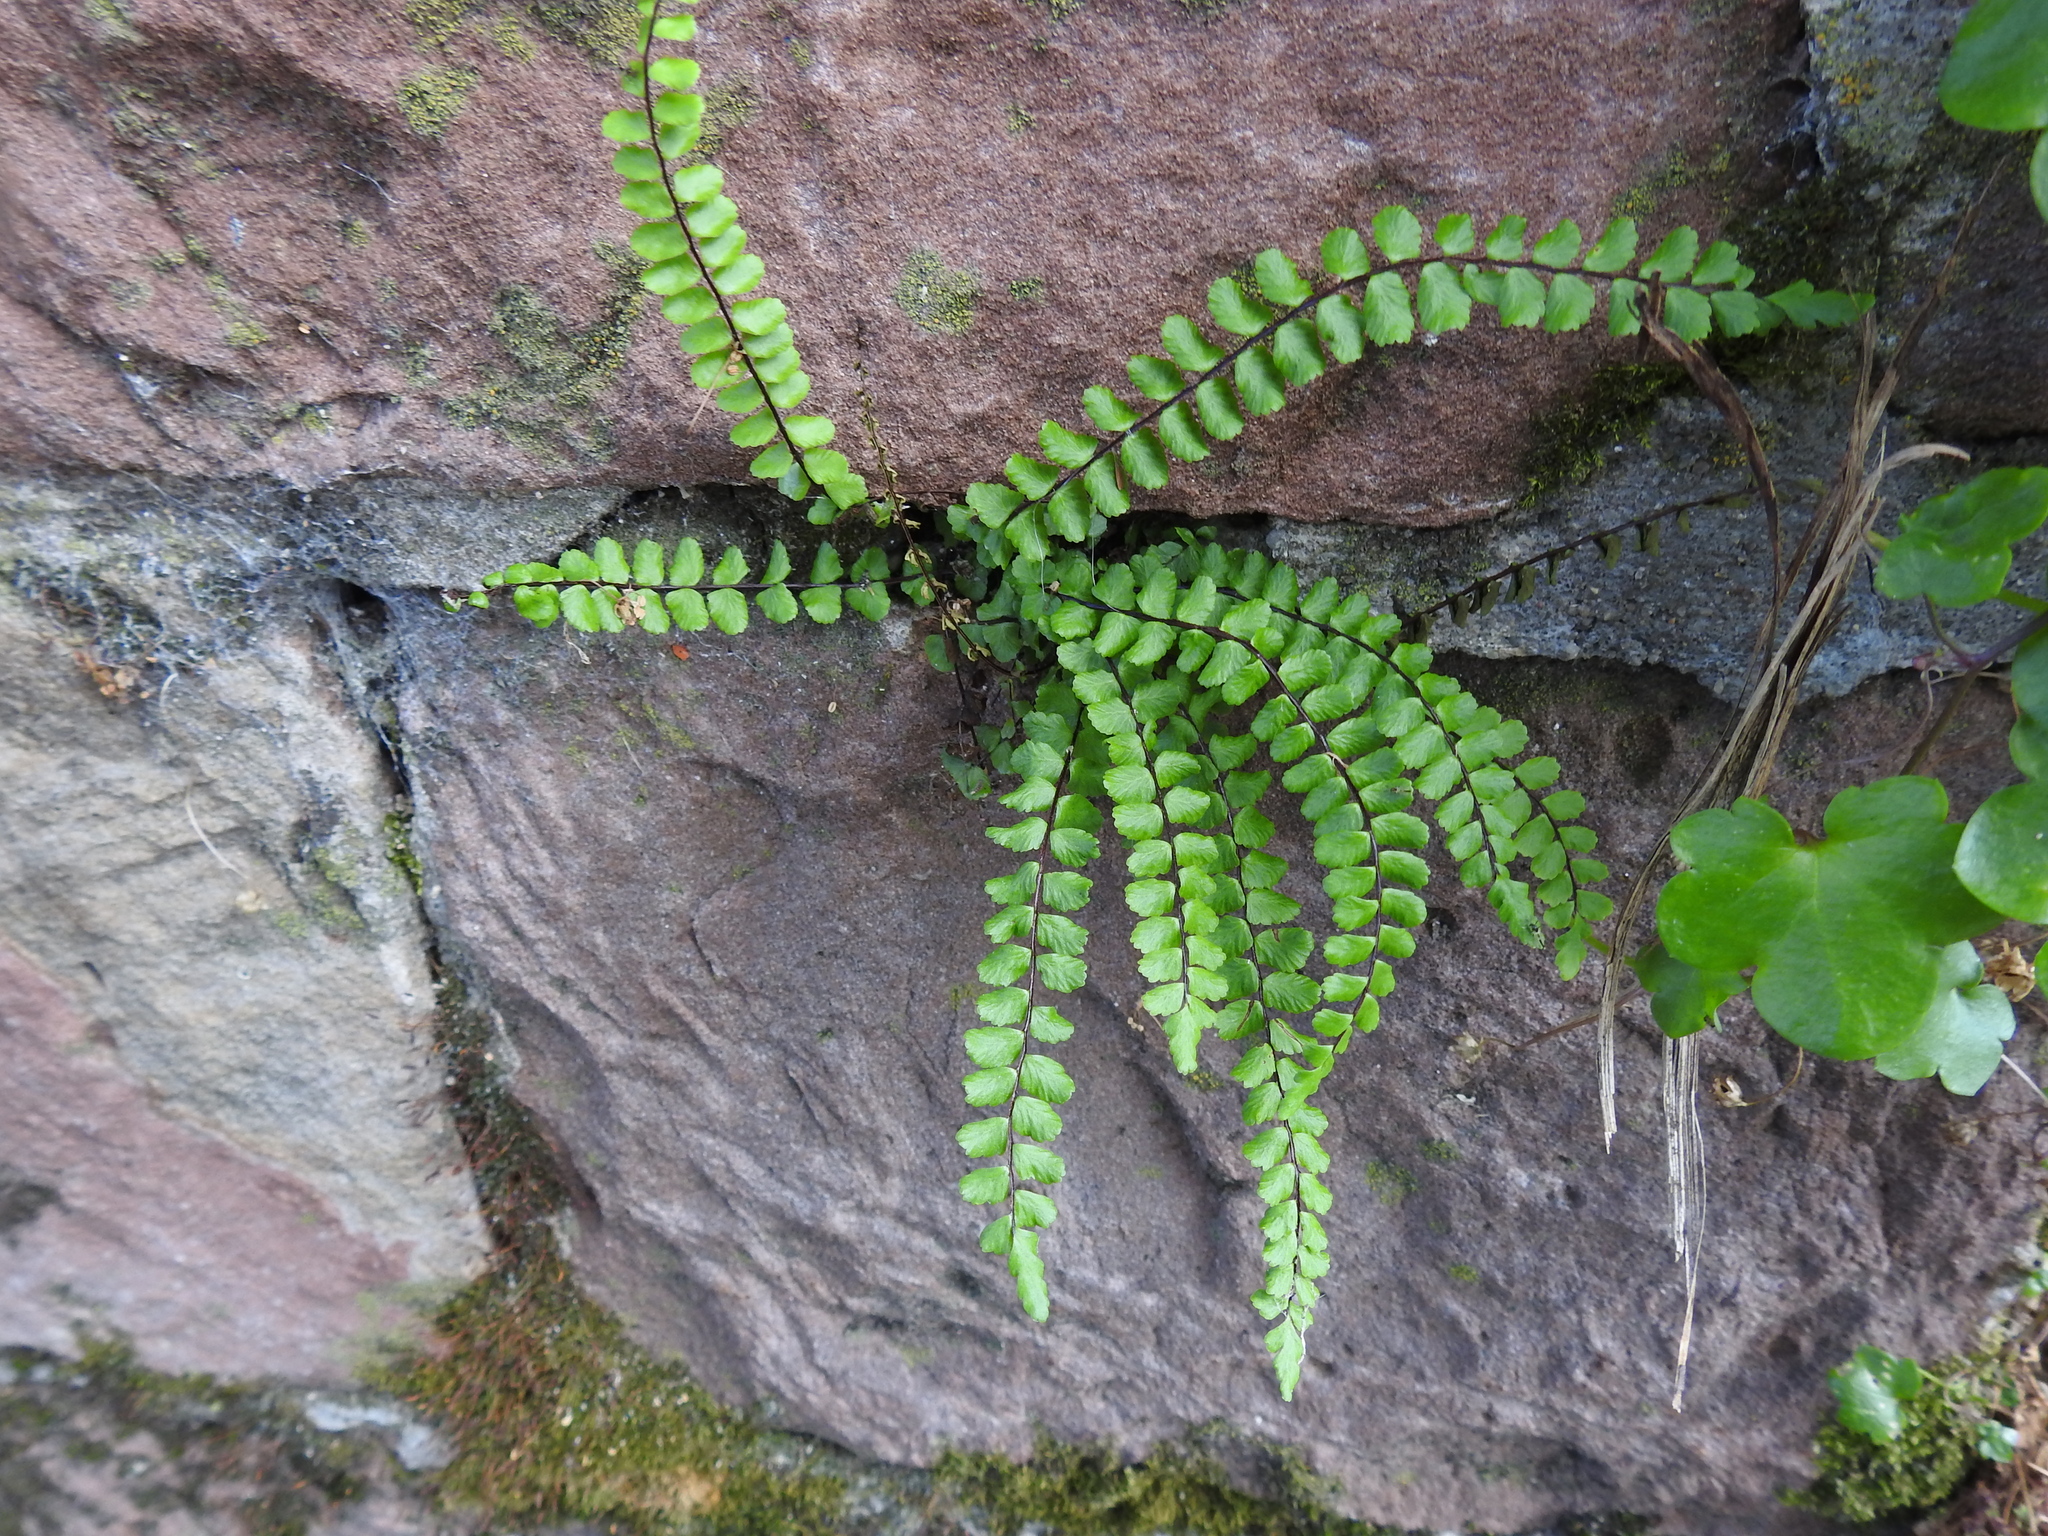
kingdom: Plantae
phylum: Tracheophyta
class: Polypodiopsida
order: Polypodiales
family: Aspleniaceae
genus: Asplenium
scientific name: Asplenium trichomanes
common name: Maidenhair spleenwort
